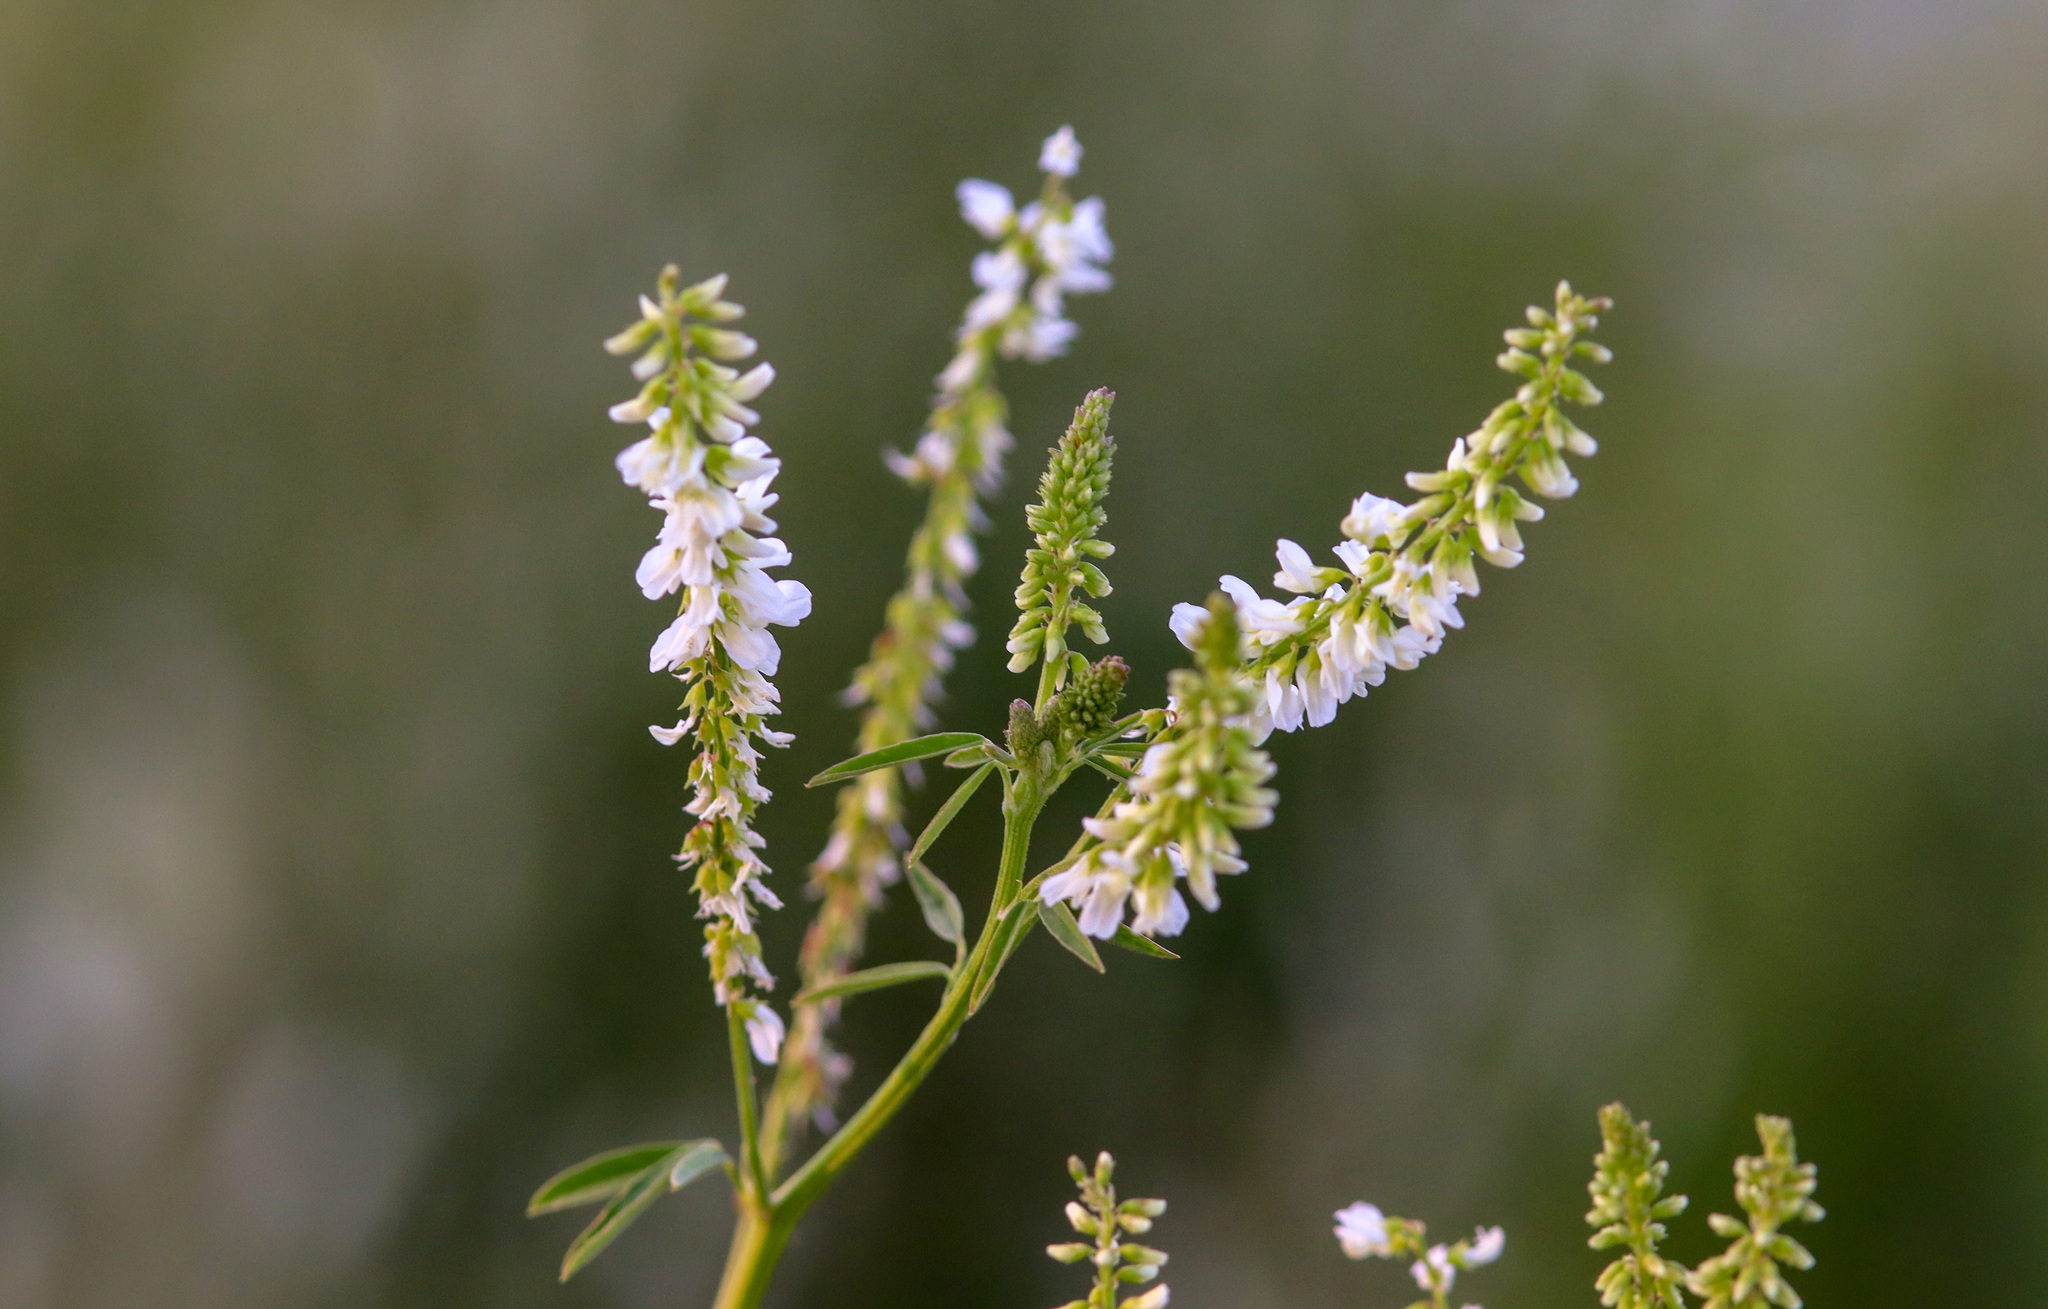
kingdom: Plantae
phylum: Tracheophyta
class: Magnoliopsida
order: Fabales
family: Fabaceae
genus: Melilotus
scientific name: Melilotus albus
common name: White melilot
